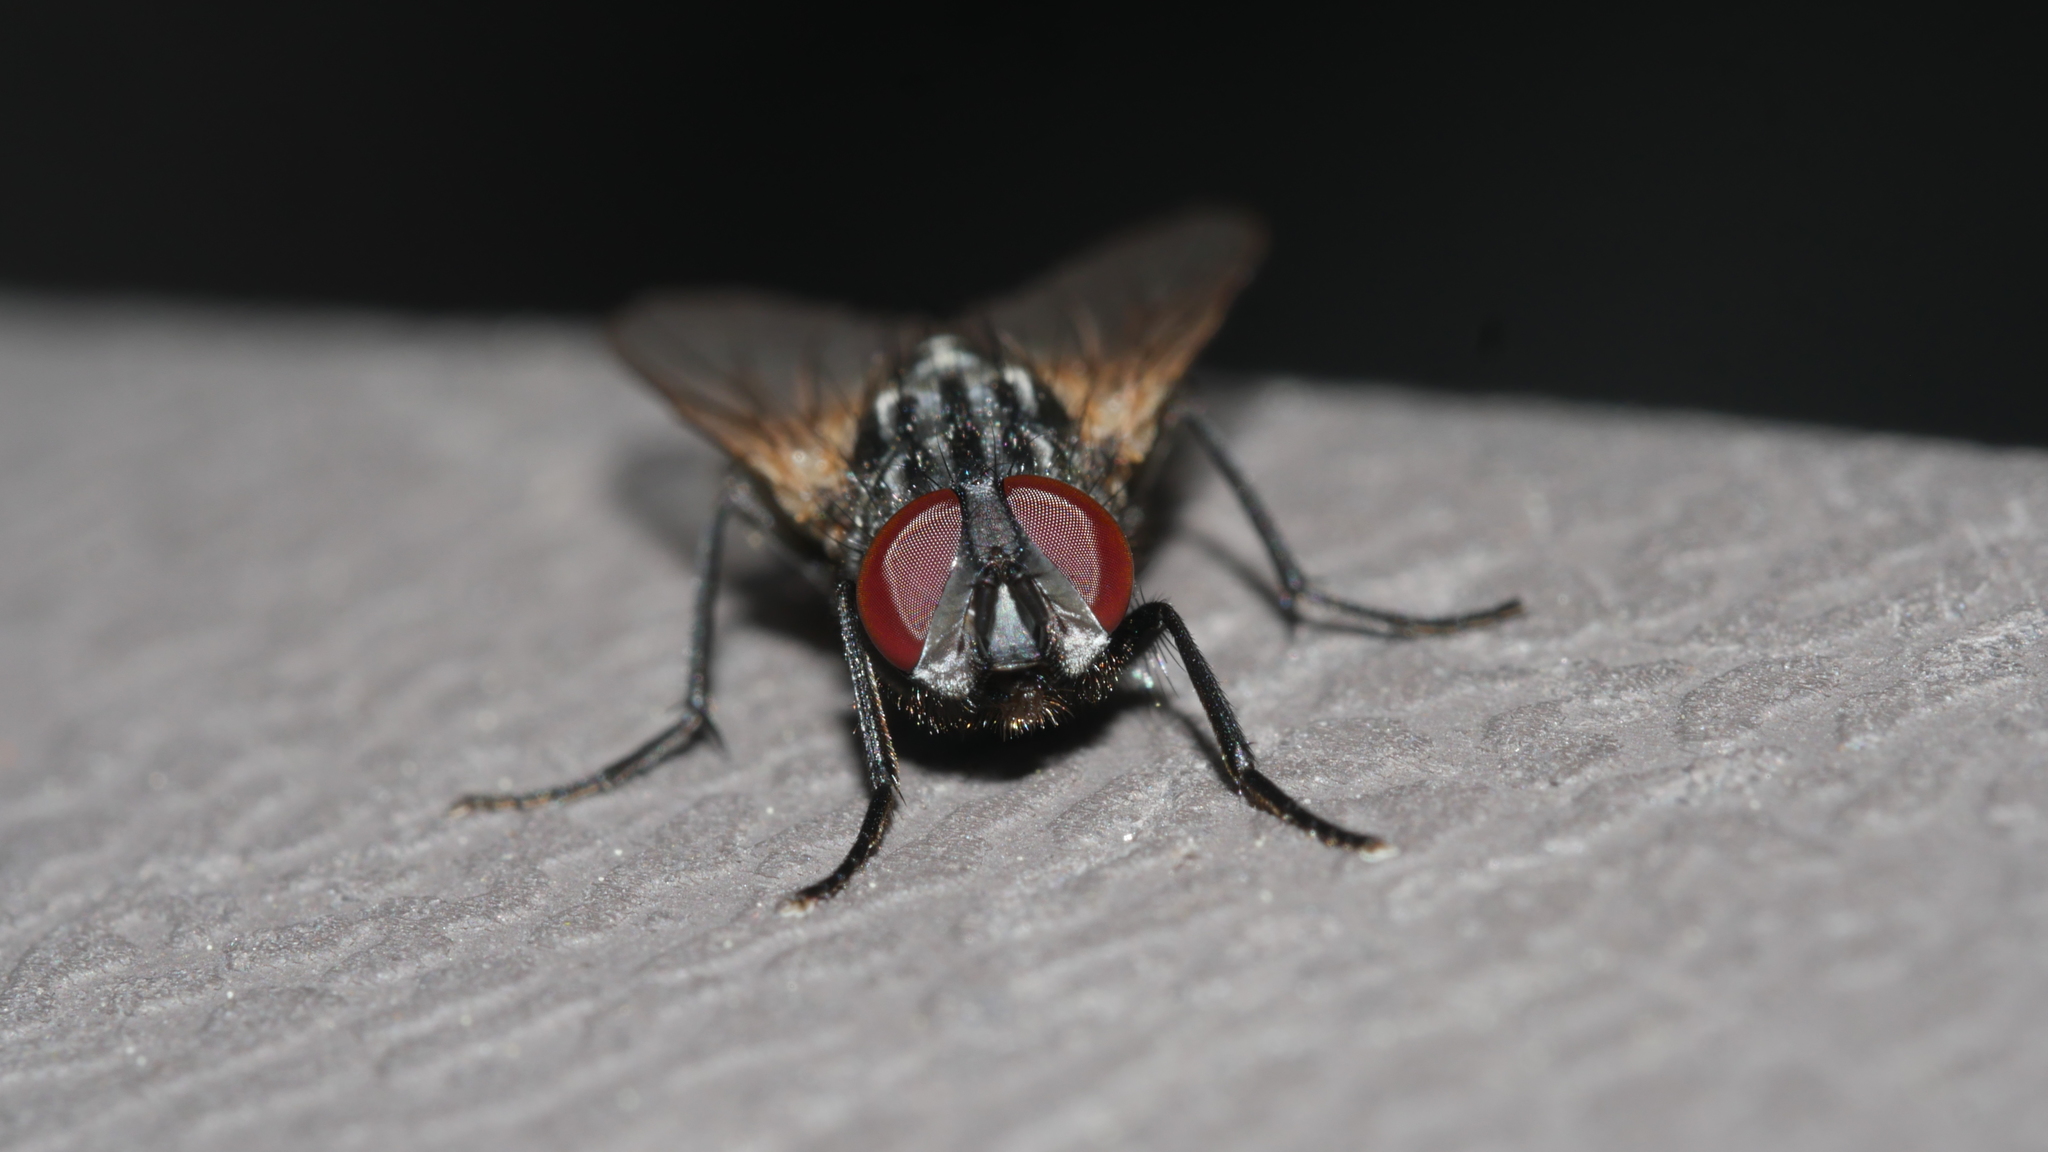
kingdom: Animalia
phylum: Arthropoda
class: Insecta
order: Diptera
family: Muscidae
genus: Musca
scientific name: Musca domestica
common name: House fly
